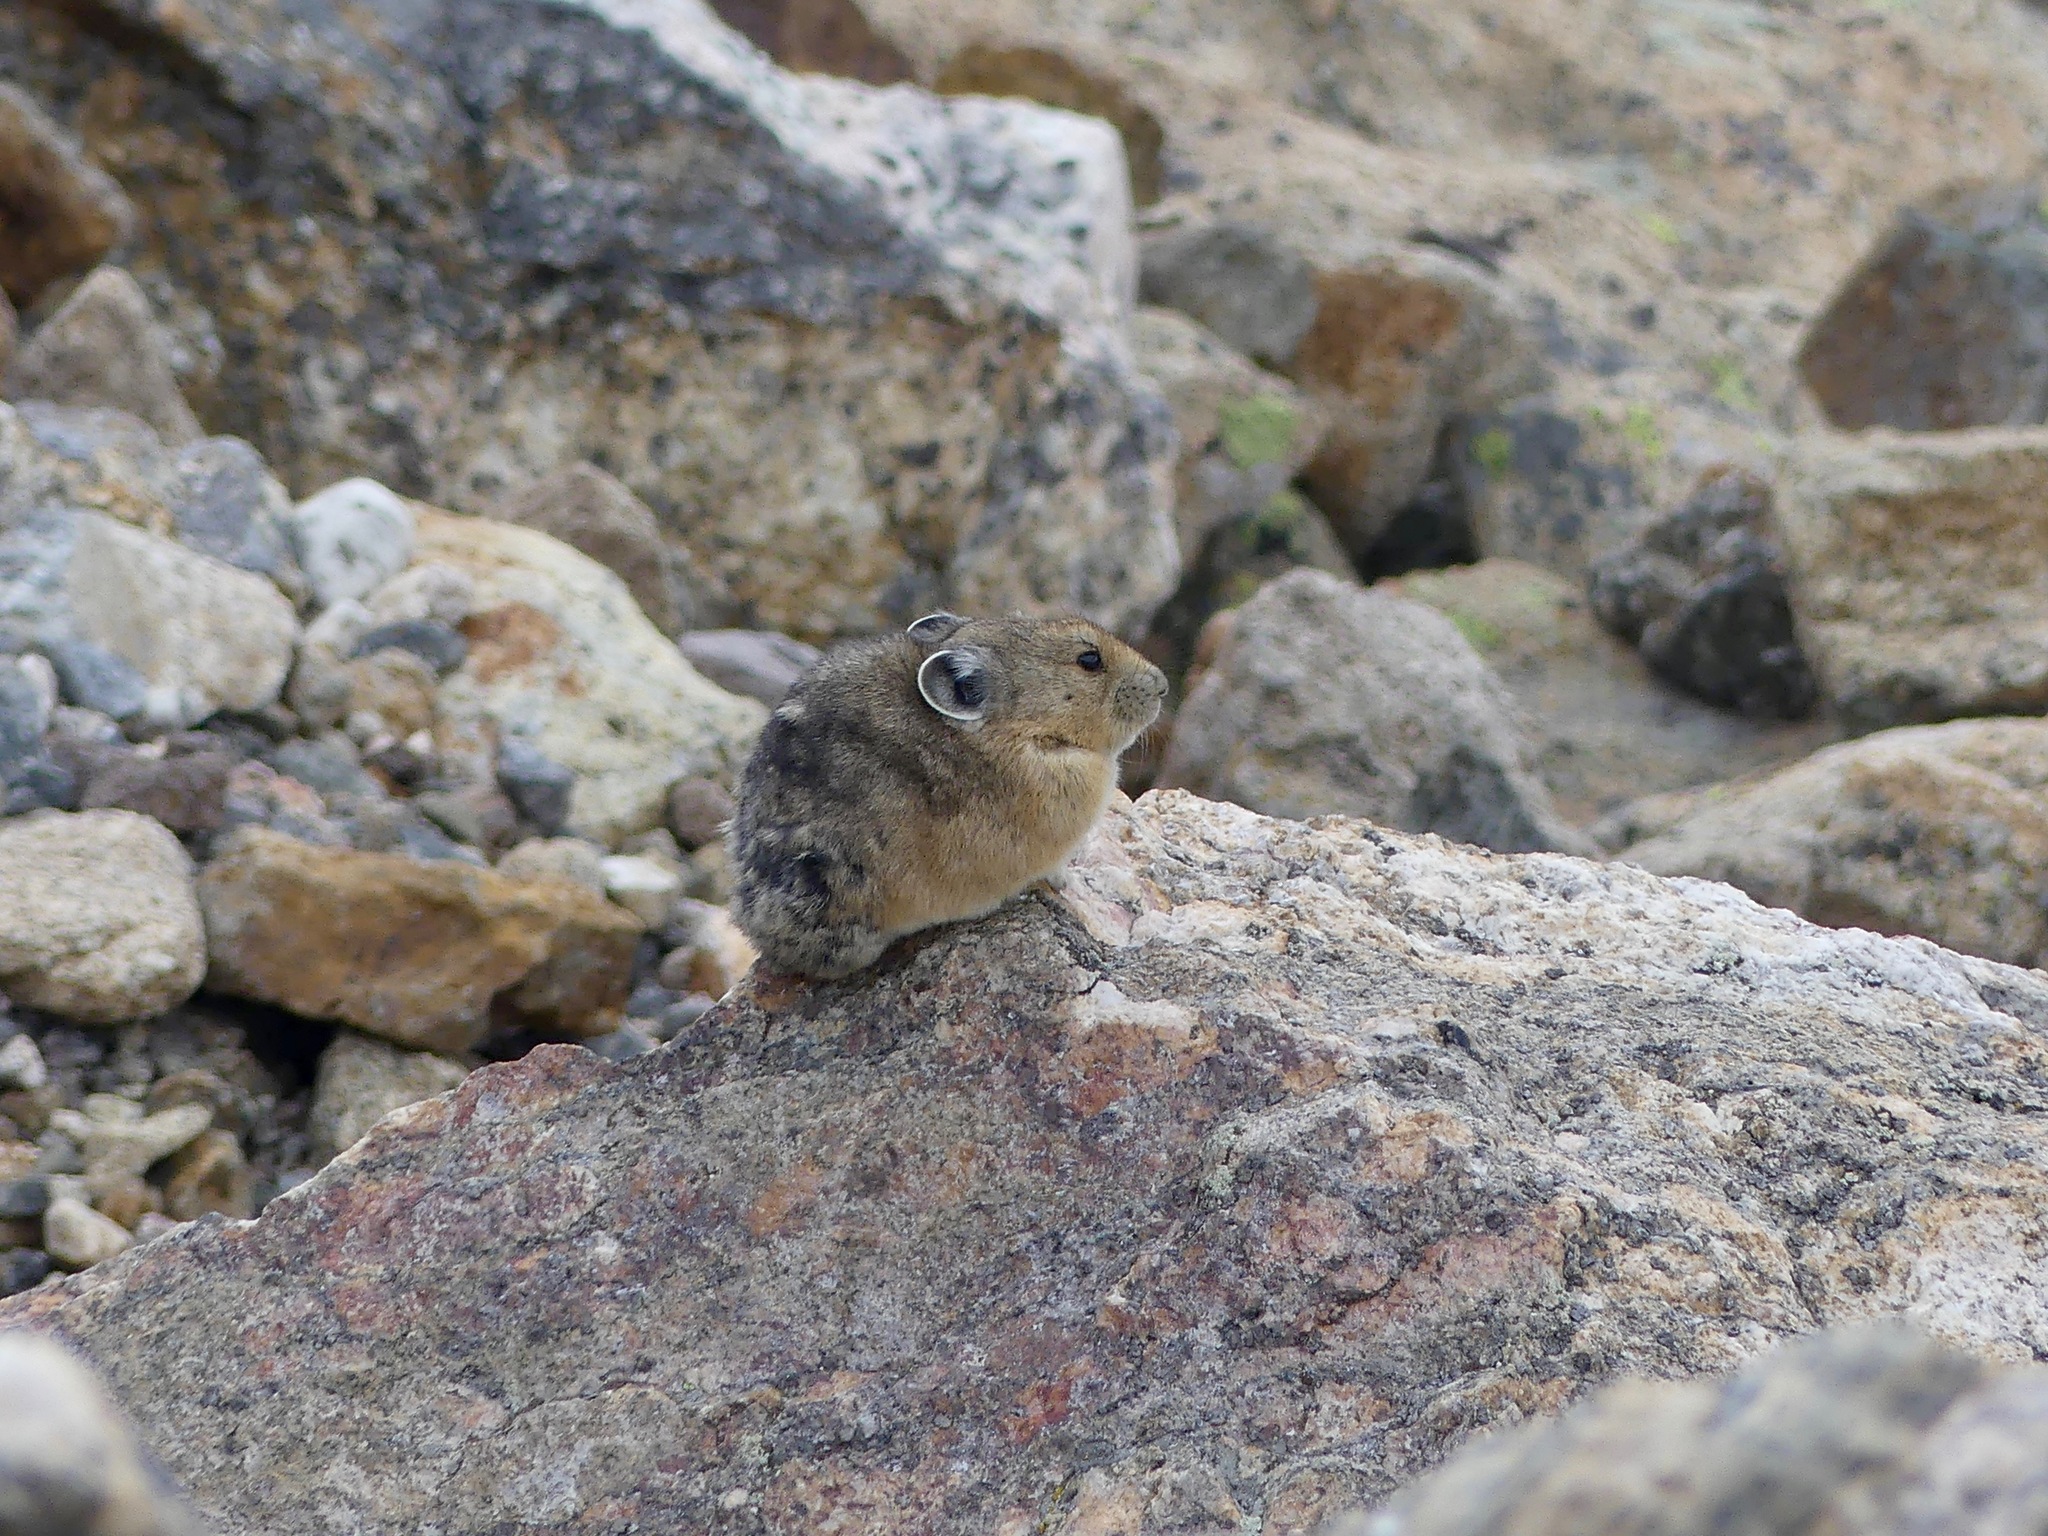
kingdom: Animalia
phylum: Chordata
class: Mammalia
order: Lagomorpha
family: Ochotonidae
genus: Ochotona
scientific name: Ochotona princeps
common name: American pika
